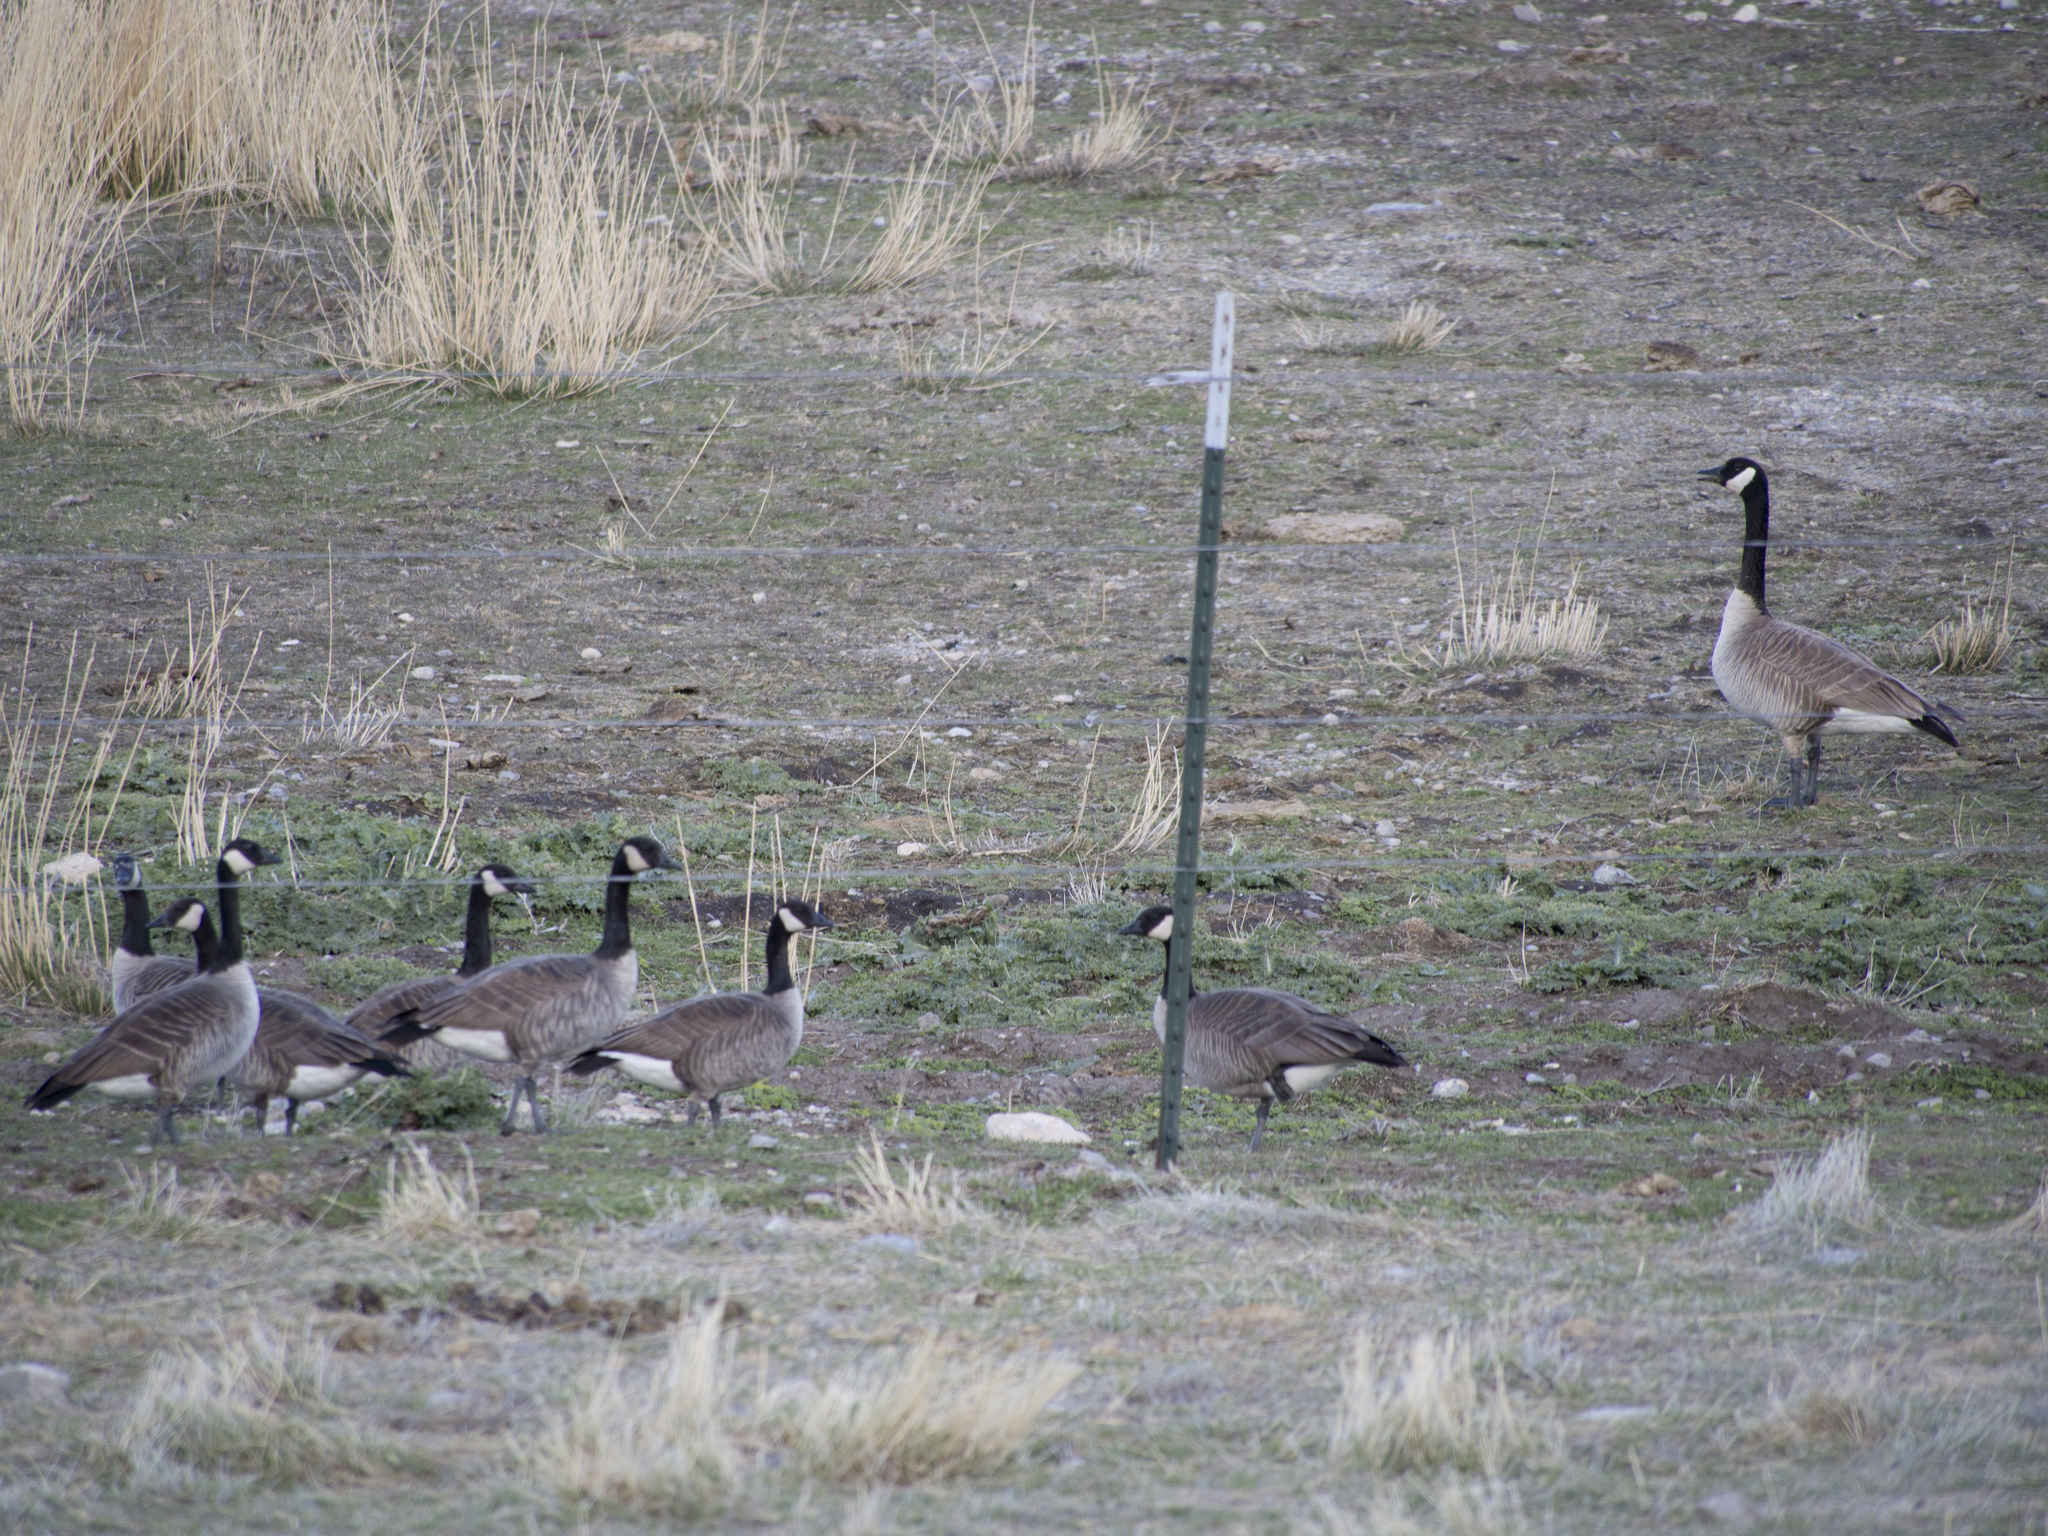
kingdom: Animalia
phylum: Chordata
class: Aves
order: Anseriformes
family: Anatidae
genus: Branta
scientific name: Branta canadensis
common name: Canada goose
